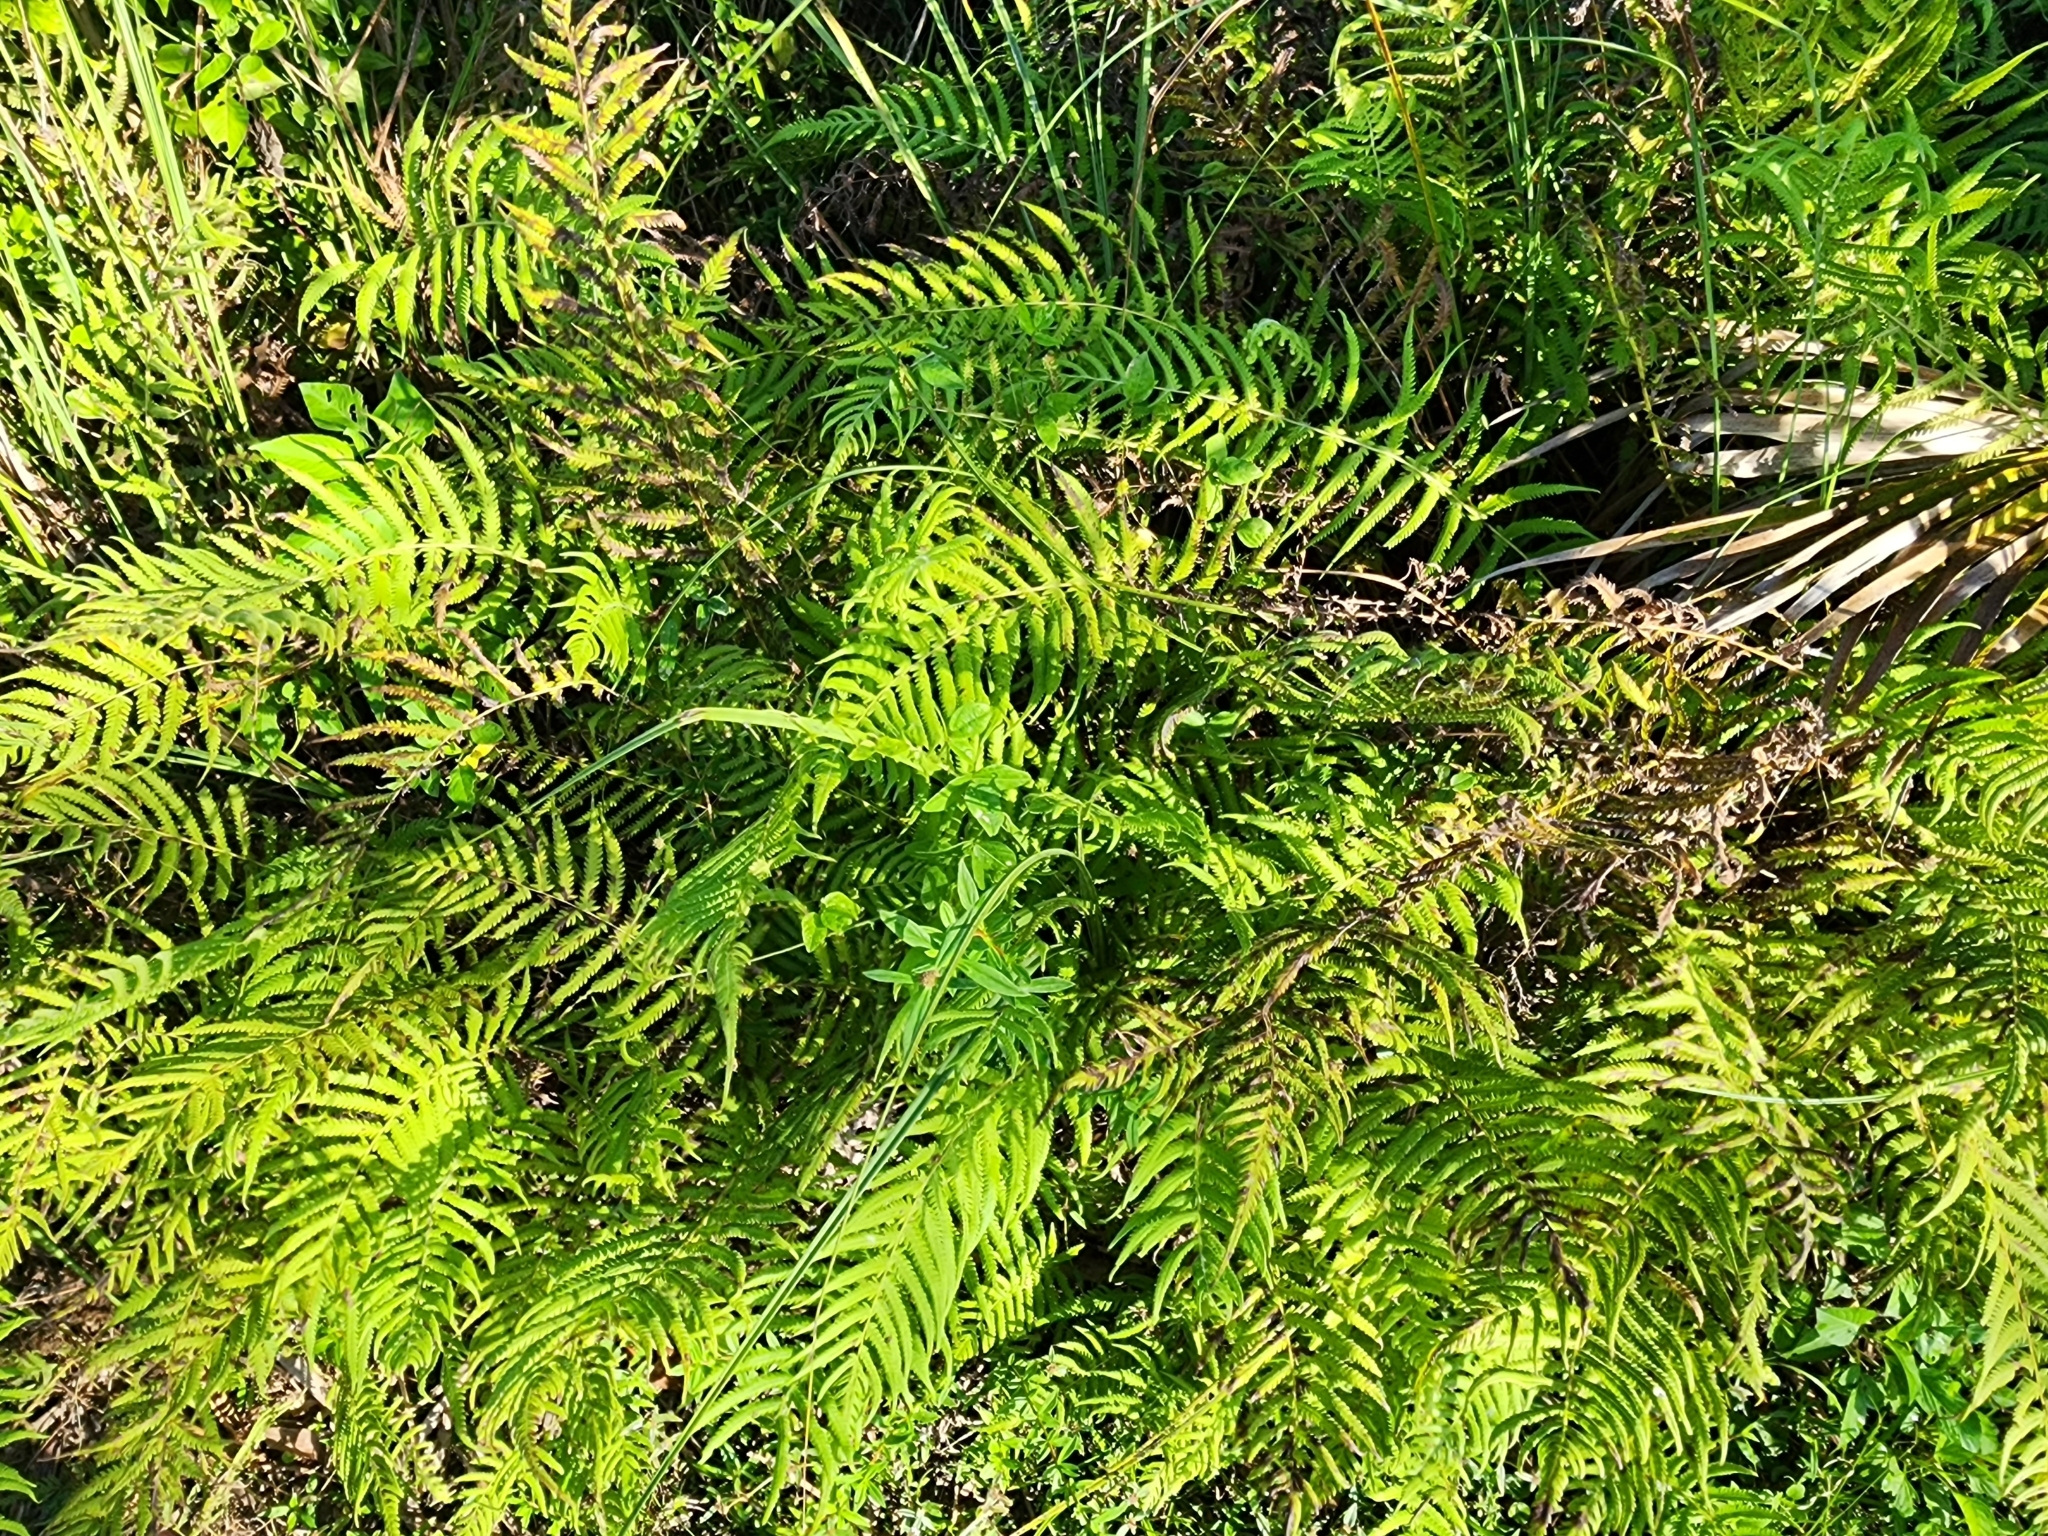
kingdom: Plantae
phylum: Tracheophyta
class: Polypodiopsida
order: Polypodiales
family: Thelypteridaceae
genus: Pelazoneuron
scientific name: Pelazoneuron kunthii
